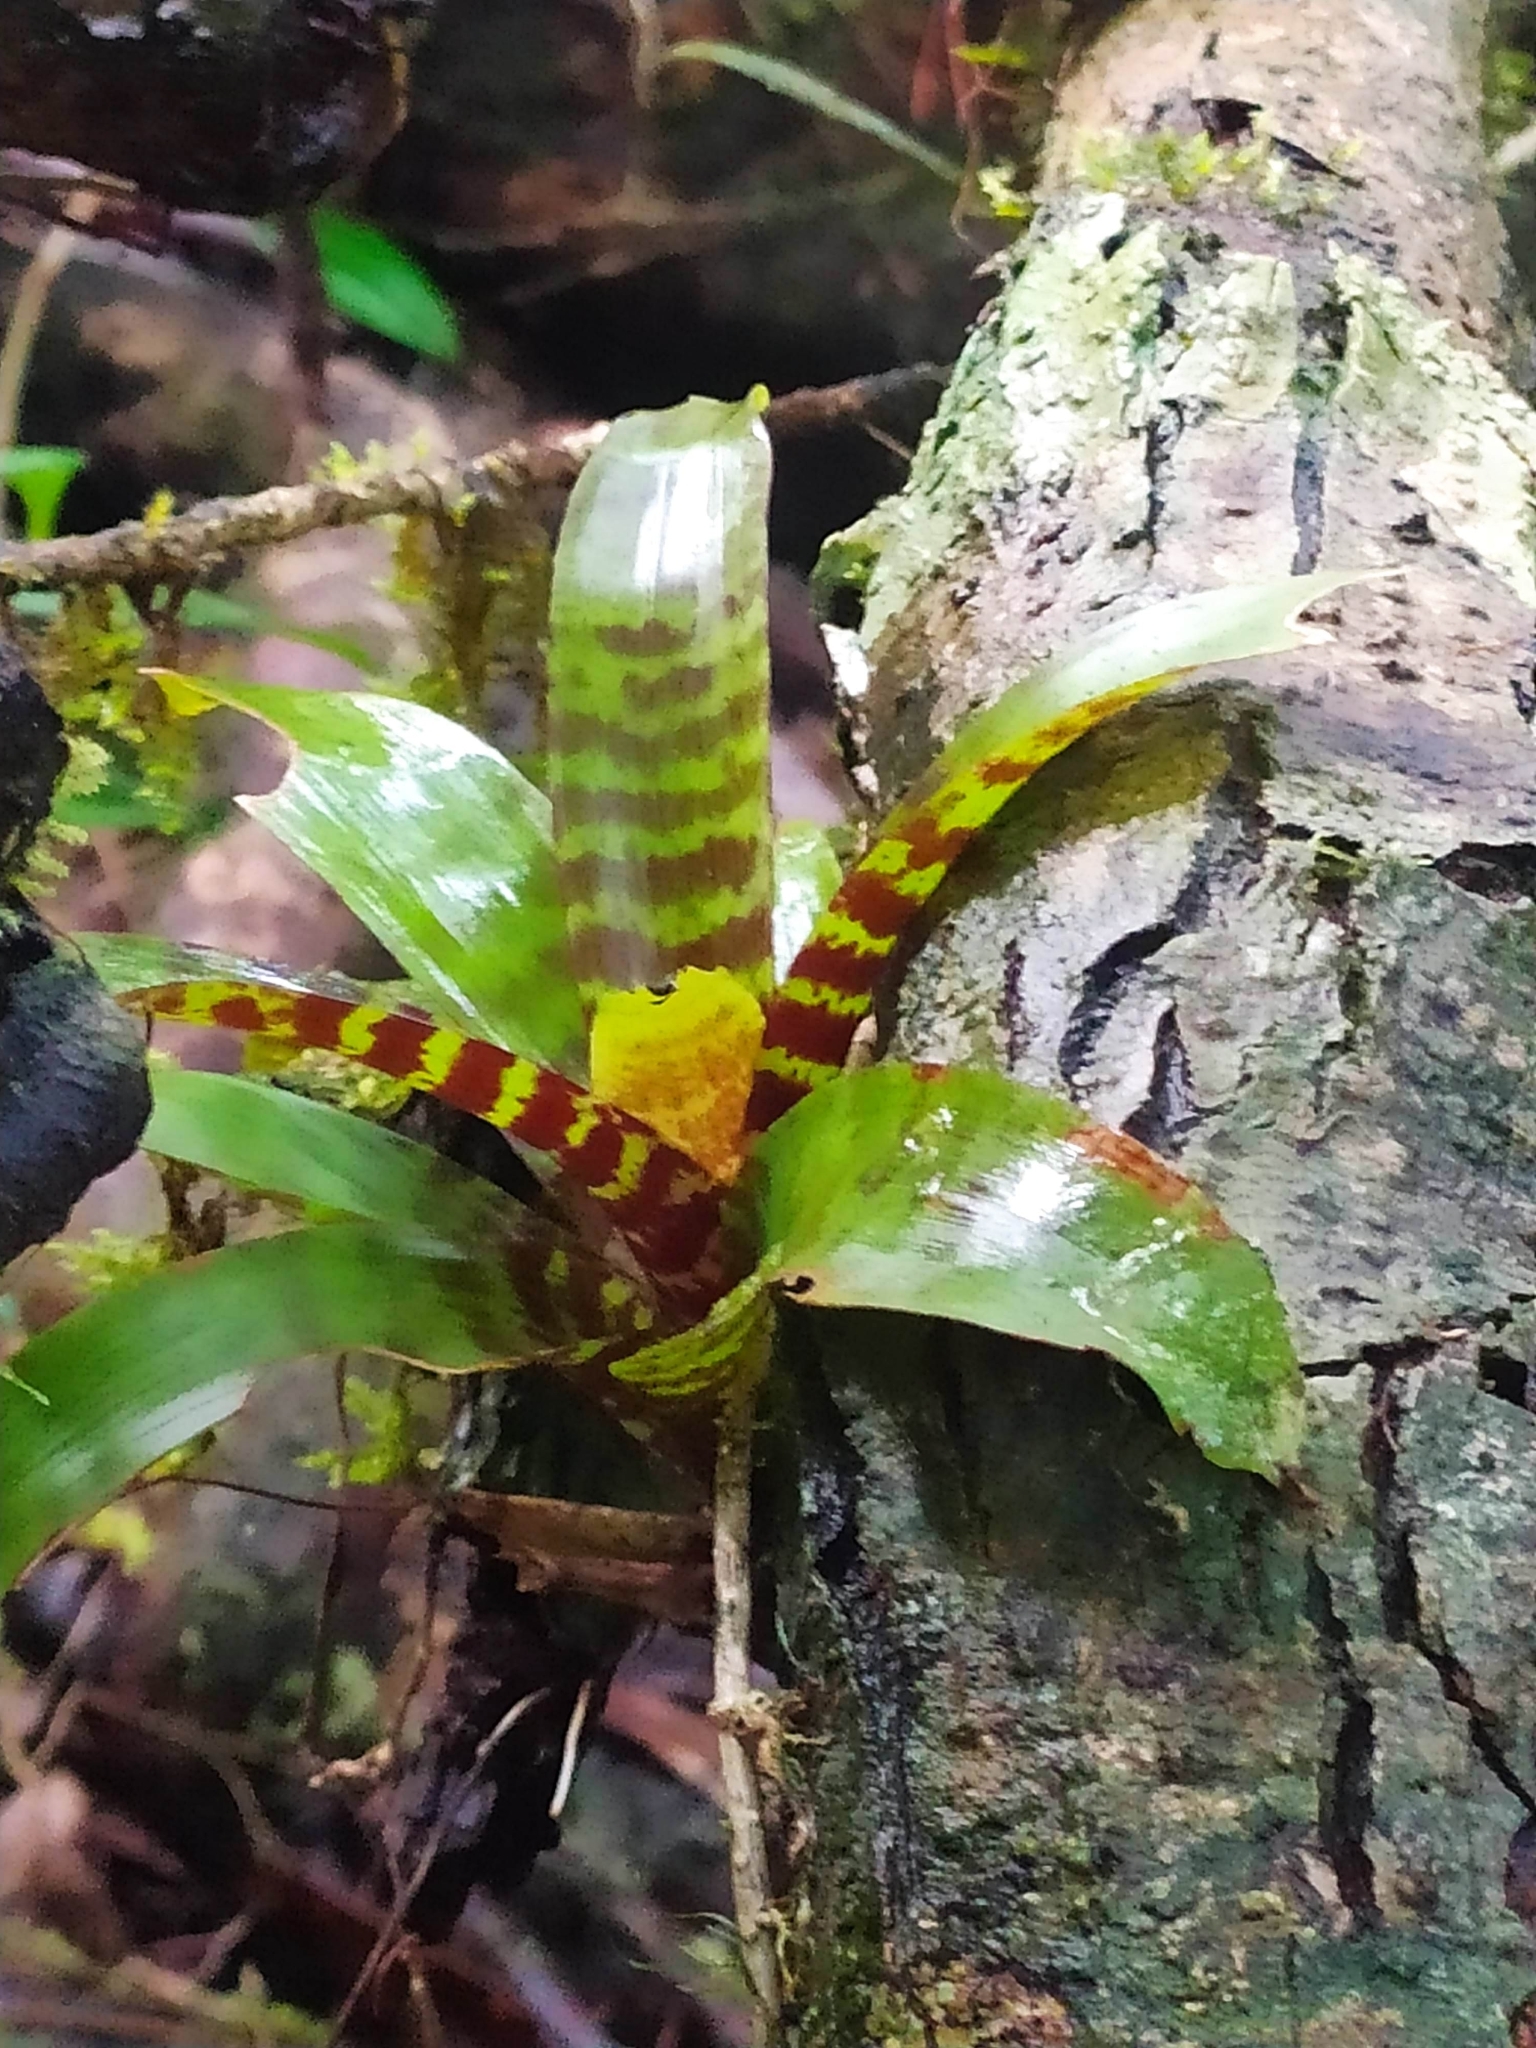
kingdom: Plantae
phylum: Tracheophyta
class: Liliopsida
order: Poales
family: Bromeliaceae
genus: Lutheria
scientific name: Lutheria splendens
